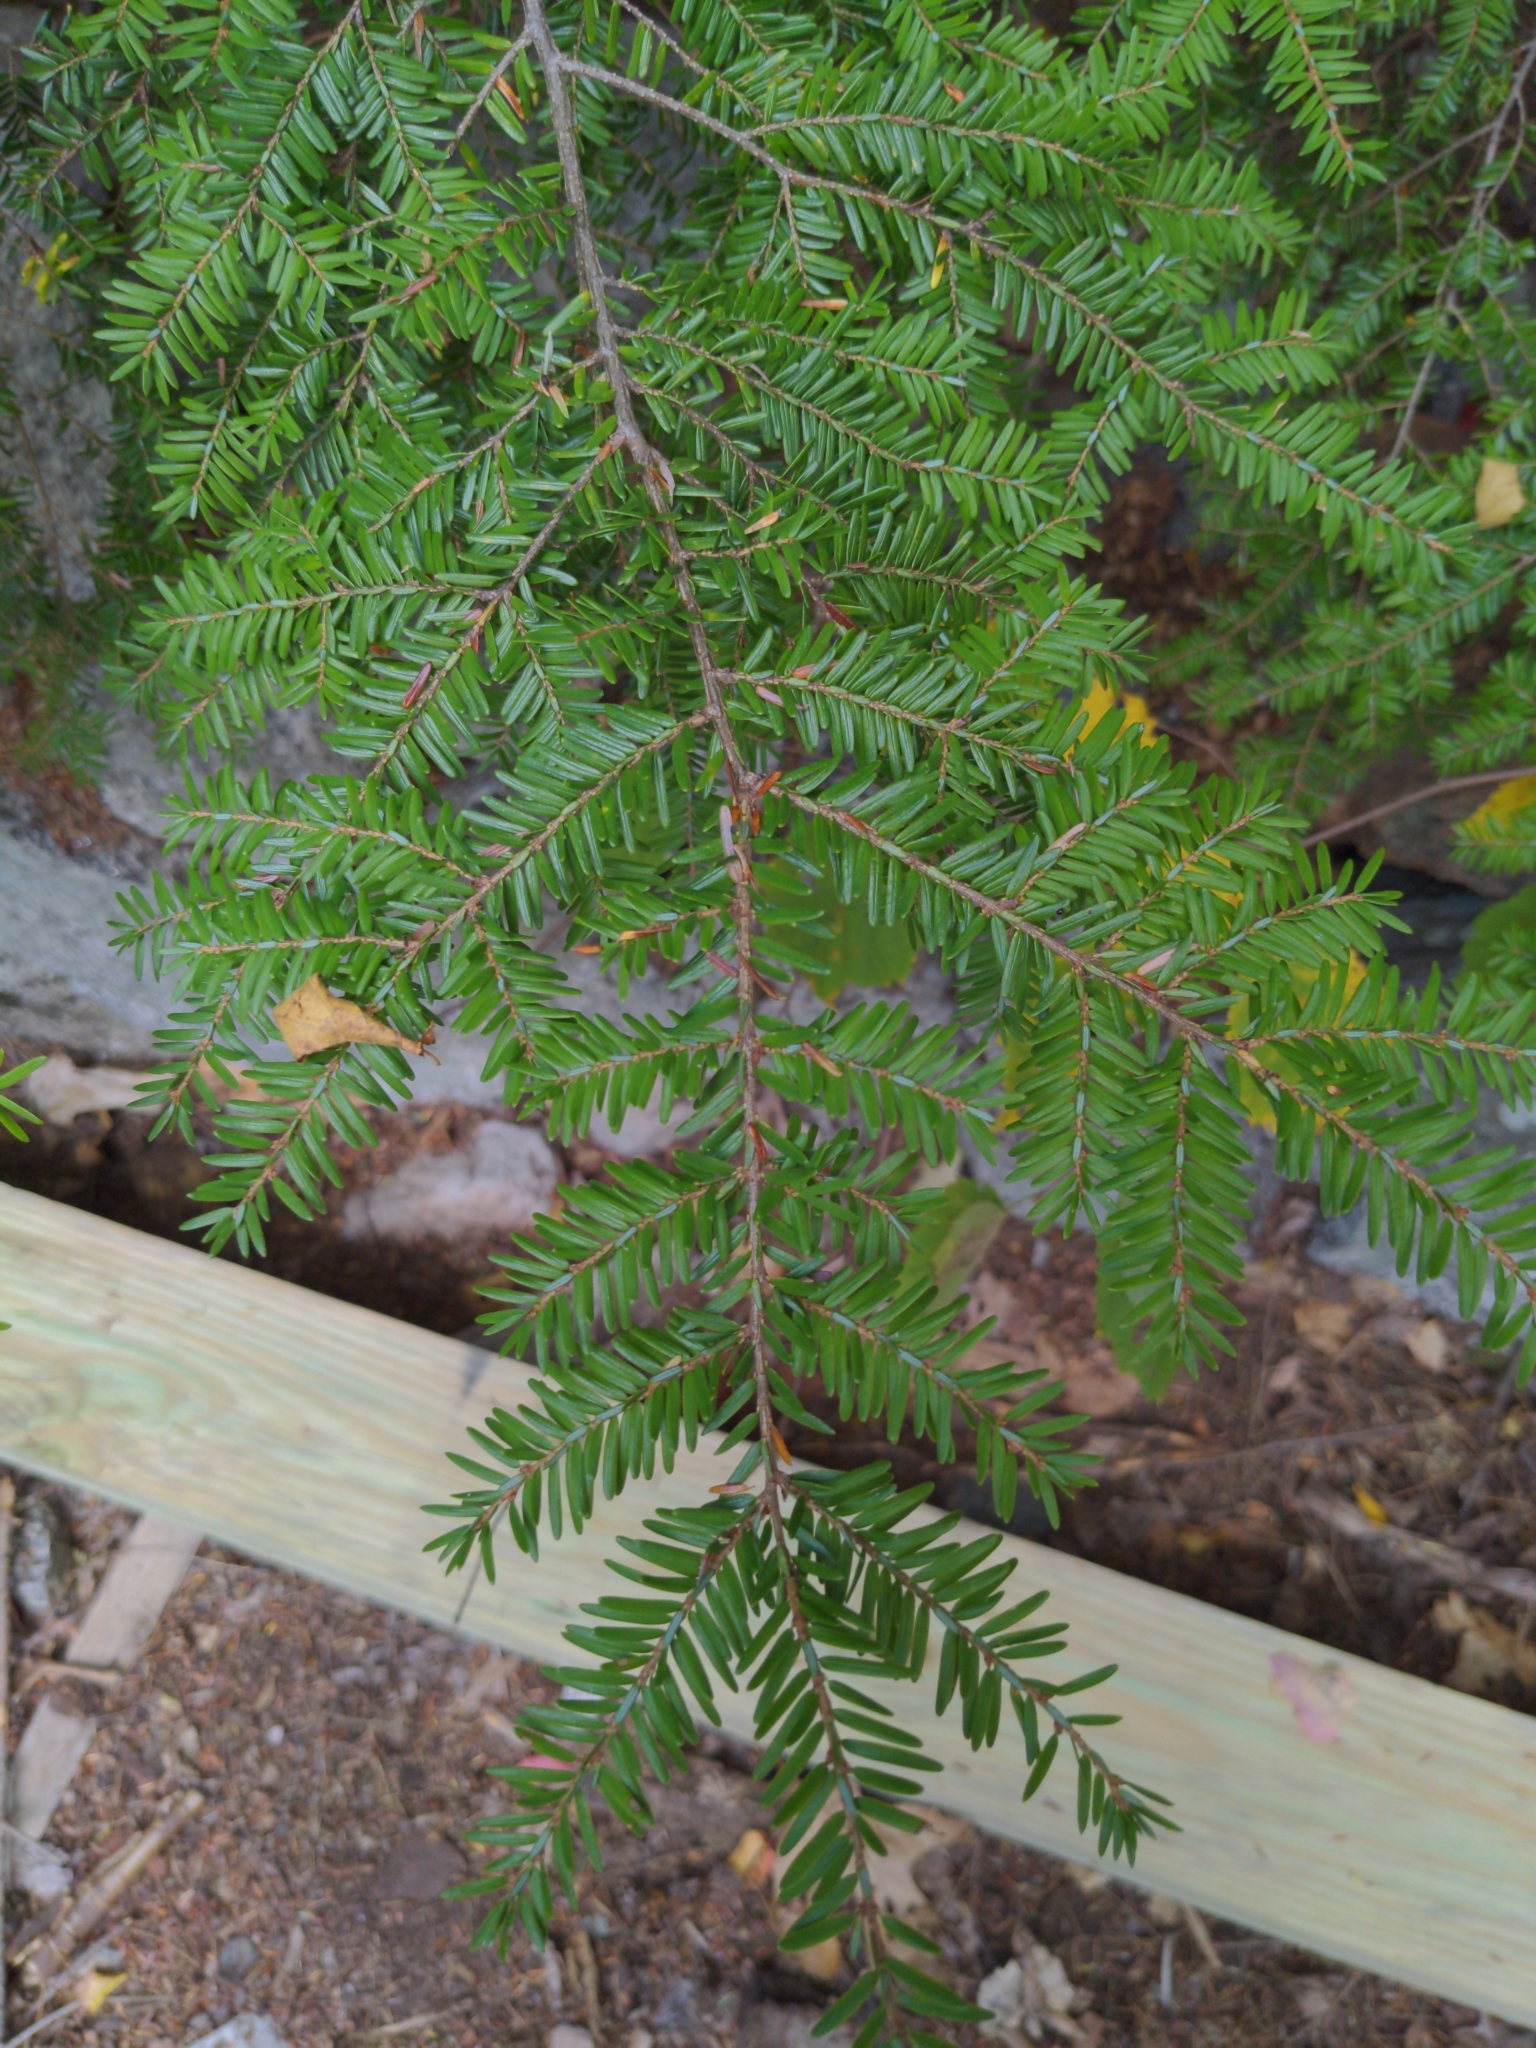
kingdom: Plantae
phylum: Tracheophyta
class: Pinopsida
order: Pinales
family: Pinaceae
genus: Tsuga
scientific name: Tsuga canadensis
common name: Eastern hemlock
